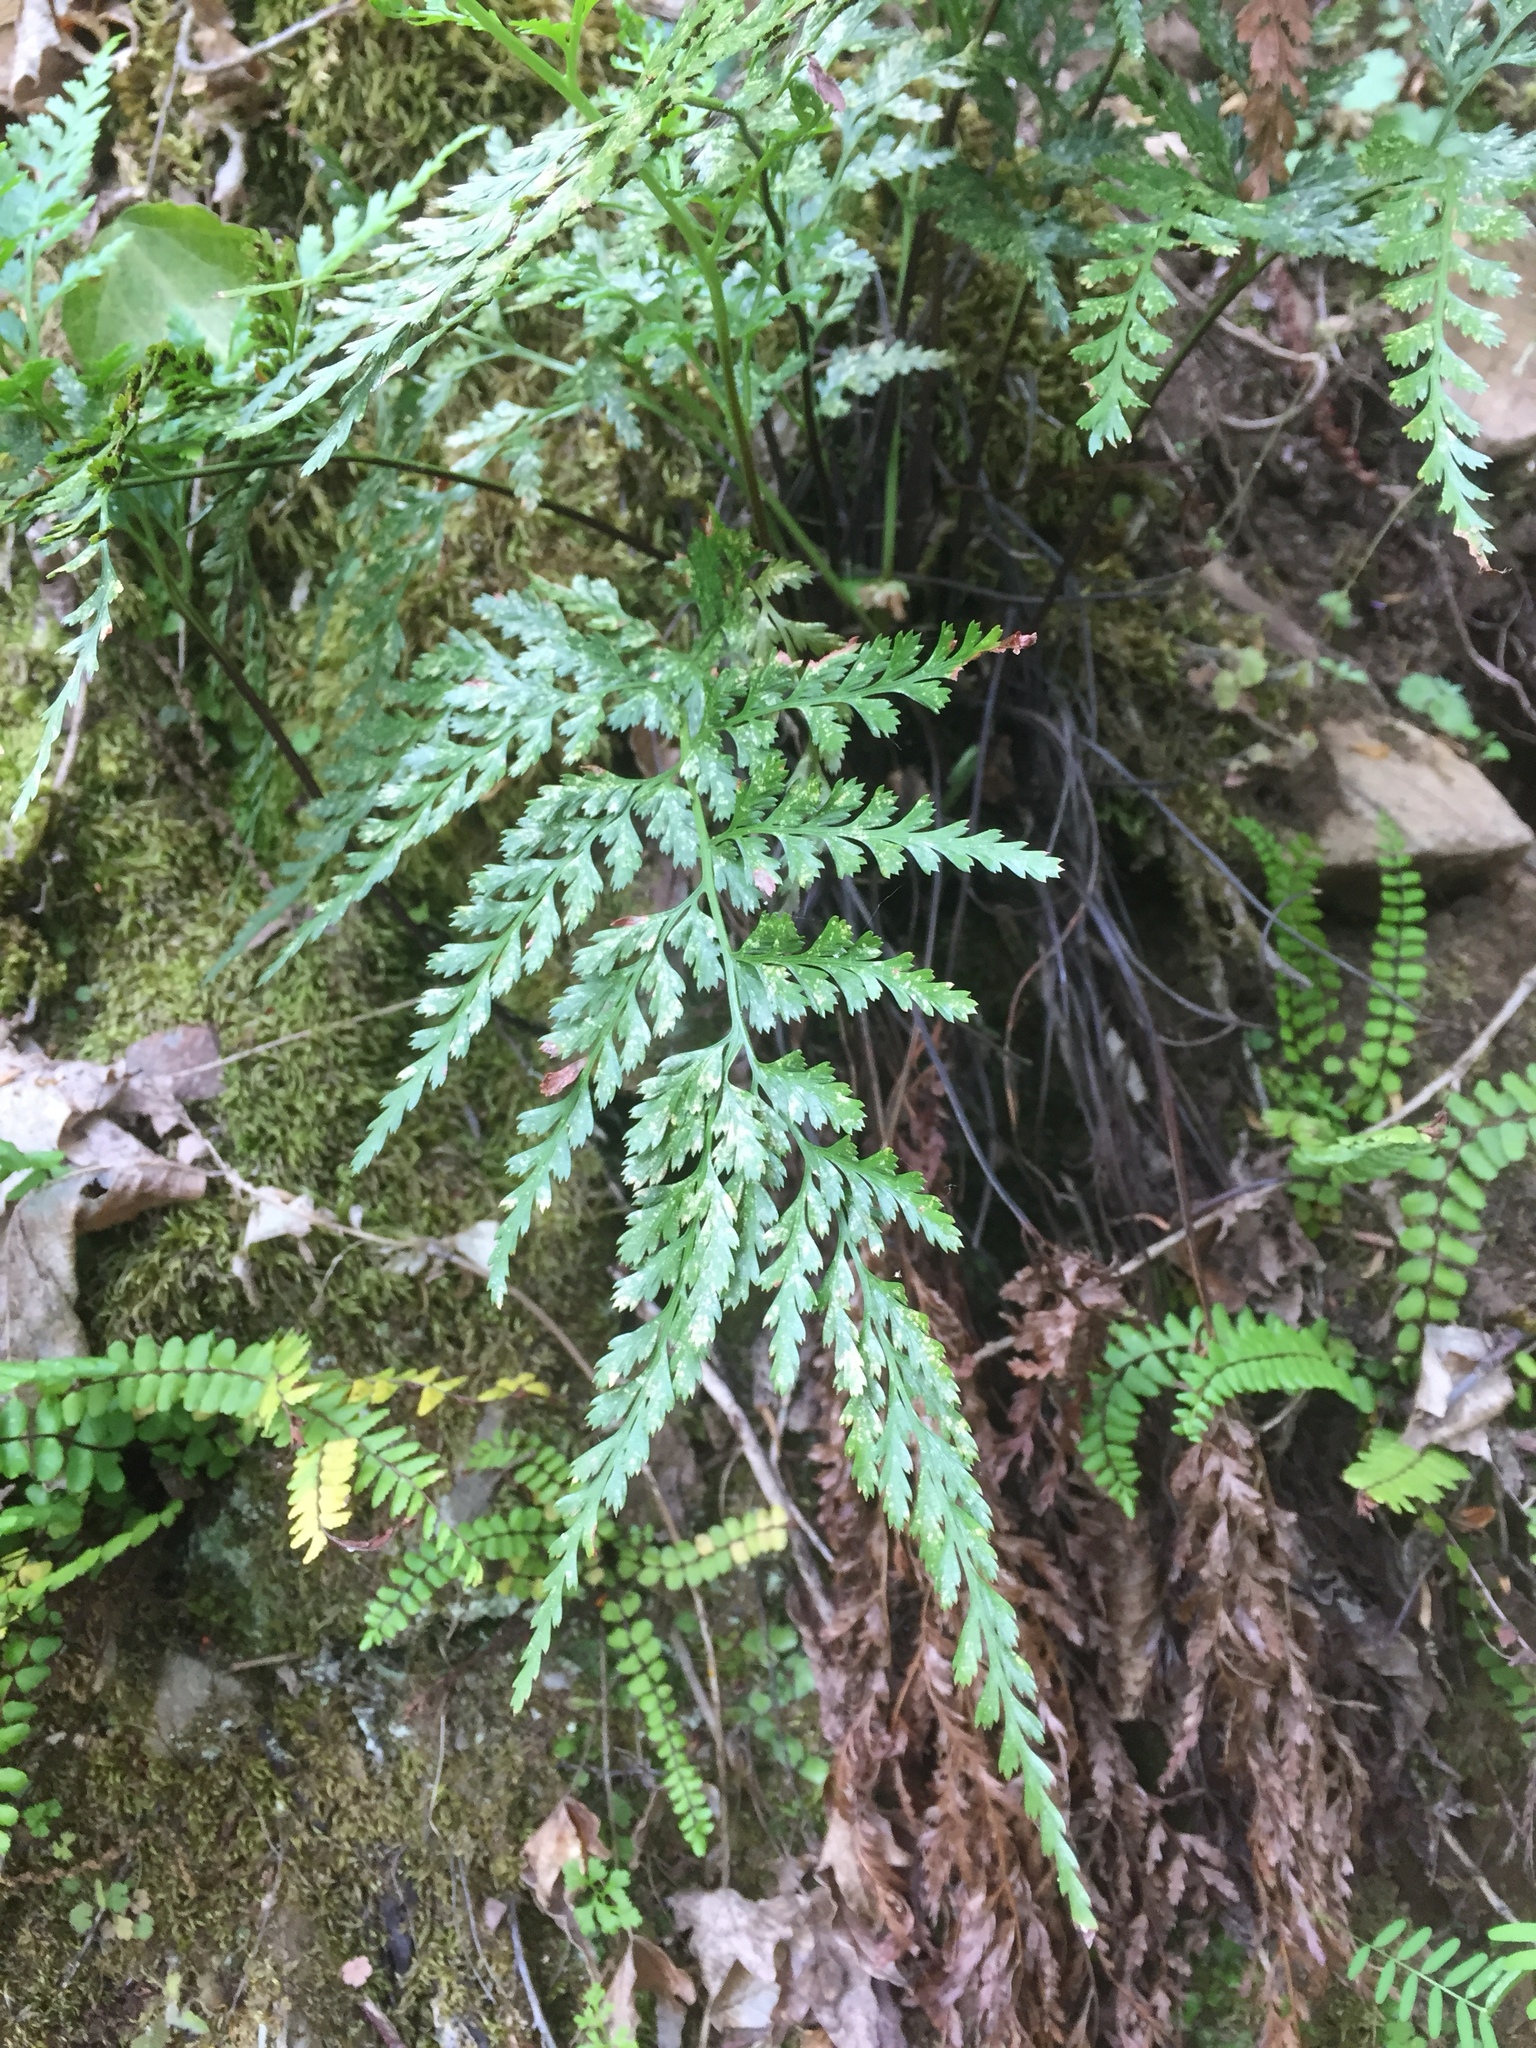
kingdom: Plantae
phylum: Tracheophyta
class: Polypodiopsida
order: Polypodiales
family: Aspleniaceae
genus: Asplenium
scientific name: Asplenium onopteris
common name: Irish spleenwort
